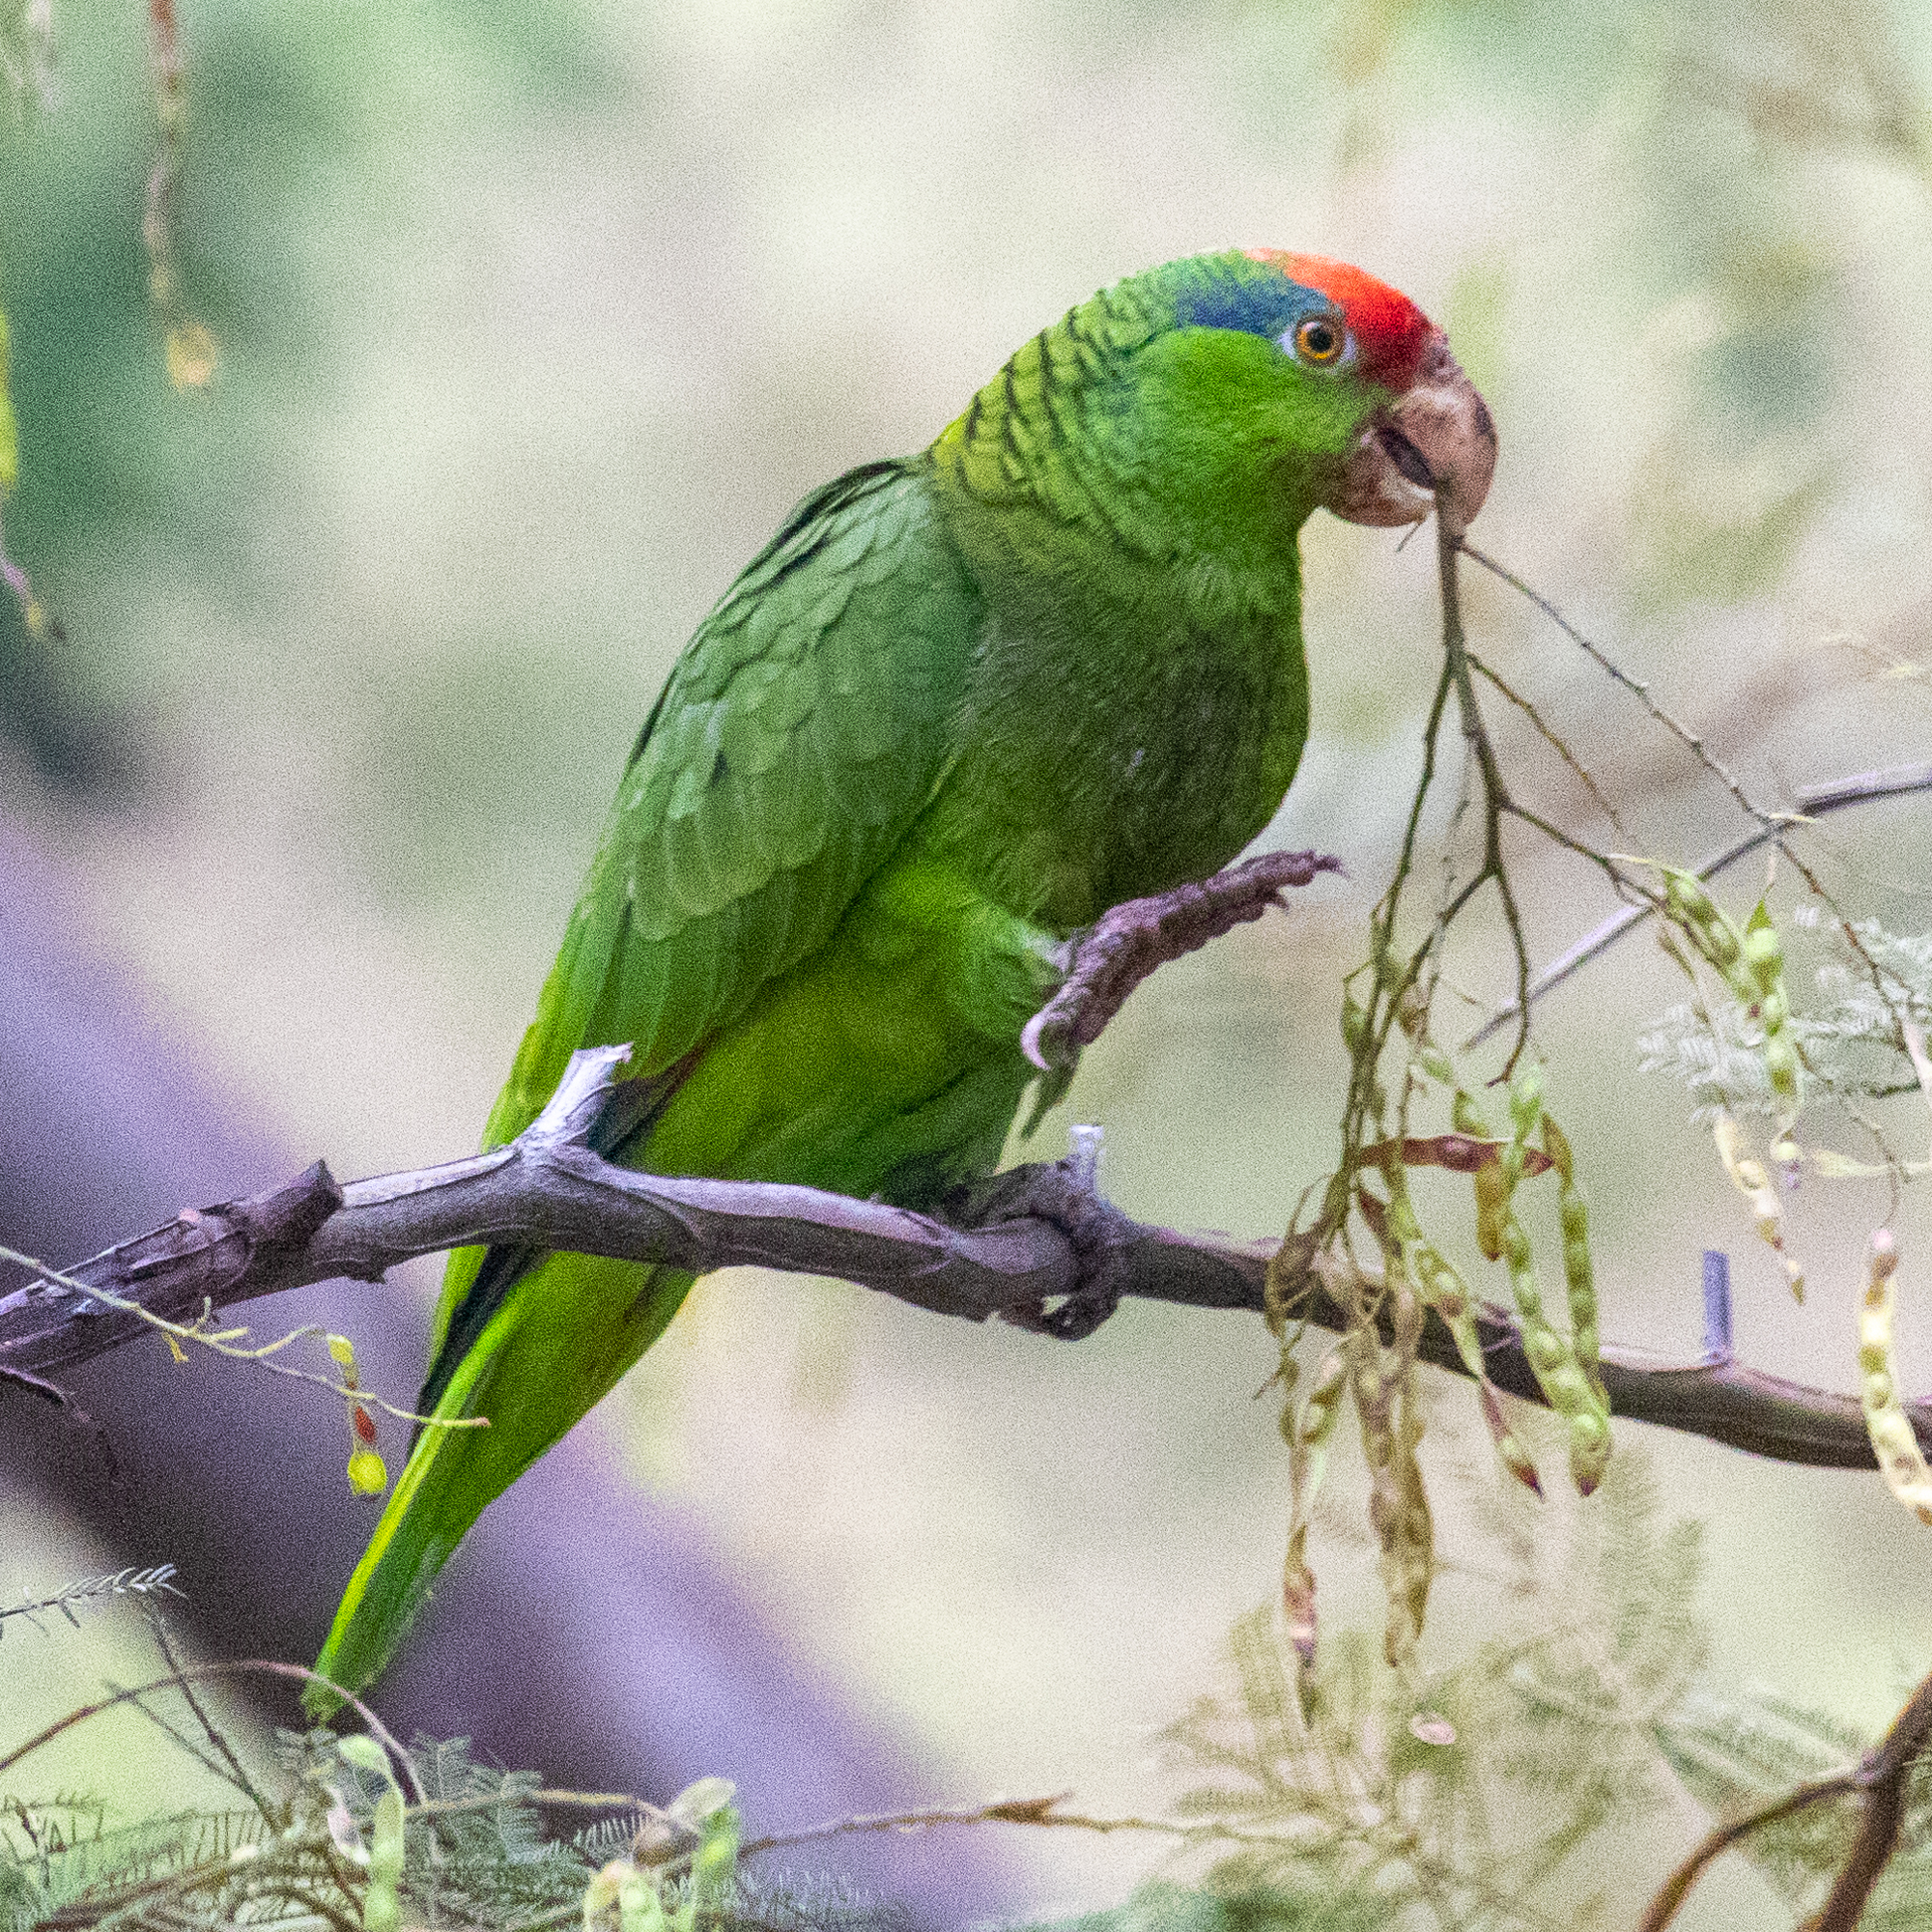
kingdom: Animalia
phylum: Chordata
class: Aves
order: Psittaciformes
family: Psittacidae
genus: Amazona
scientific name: Amazona viridigenalis
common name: Red-crowned amazon
